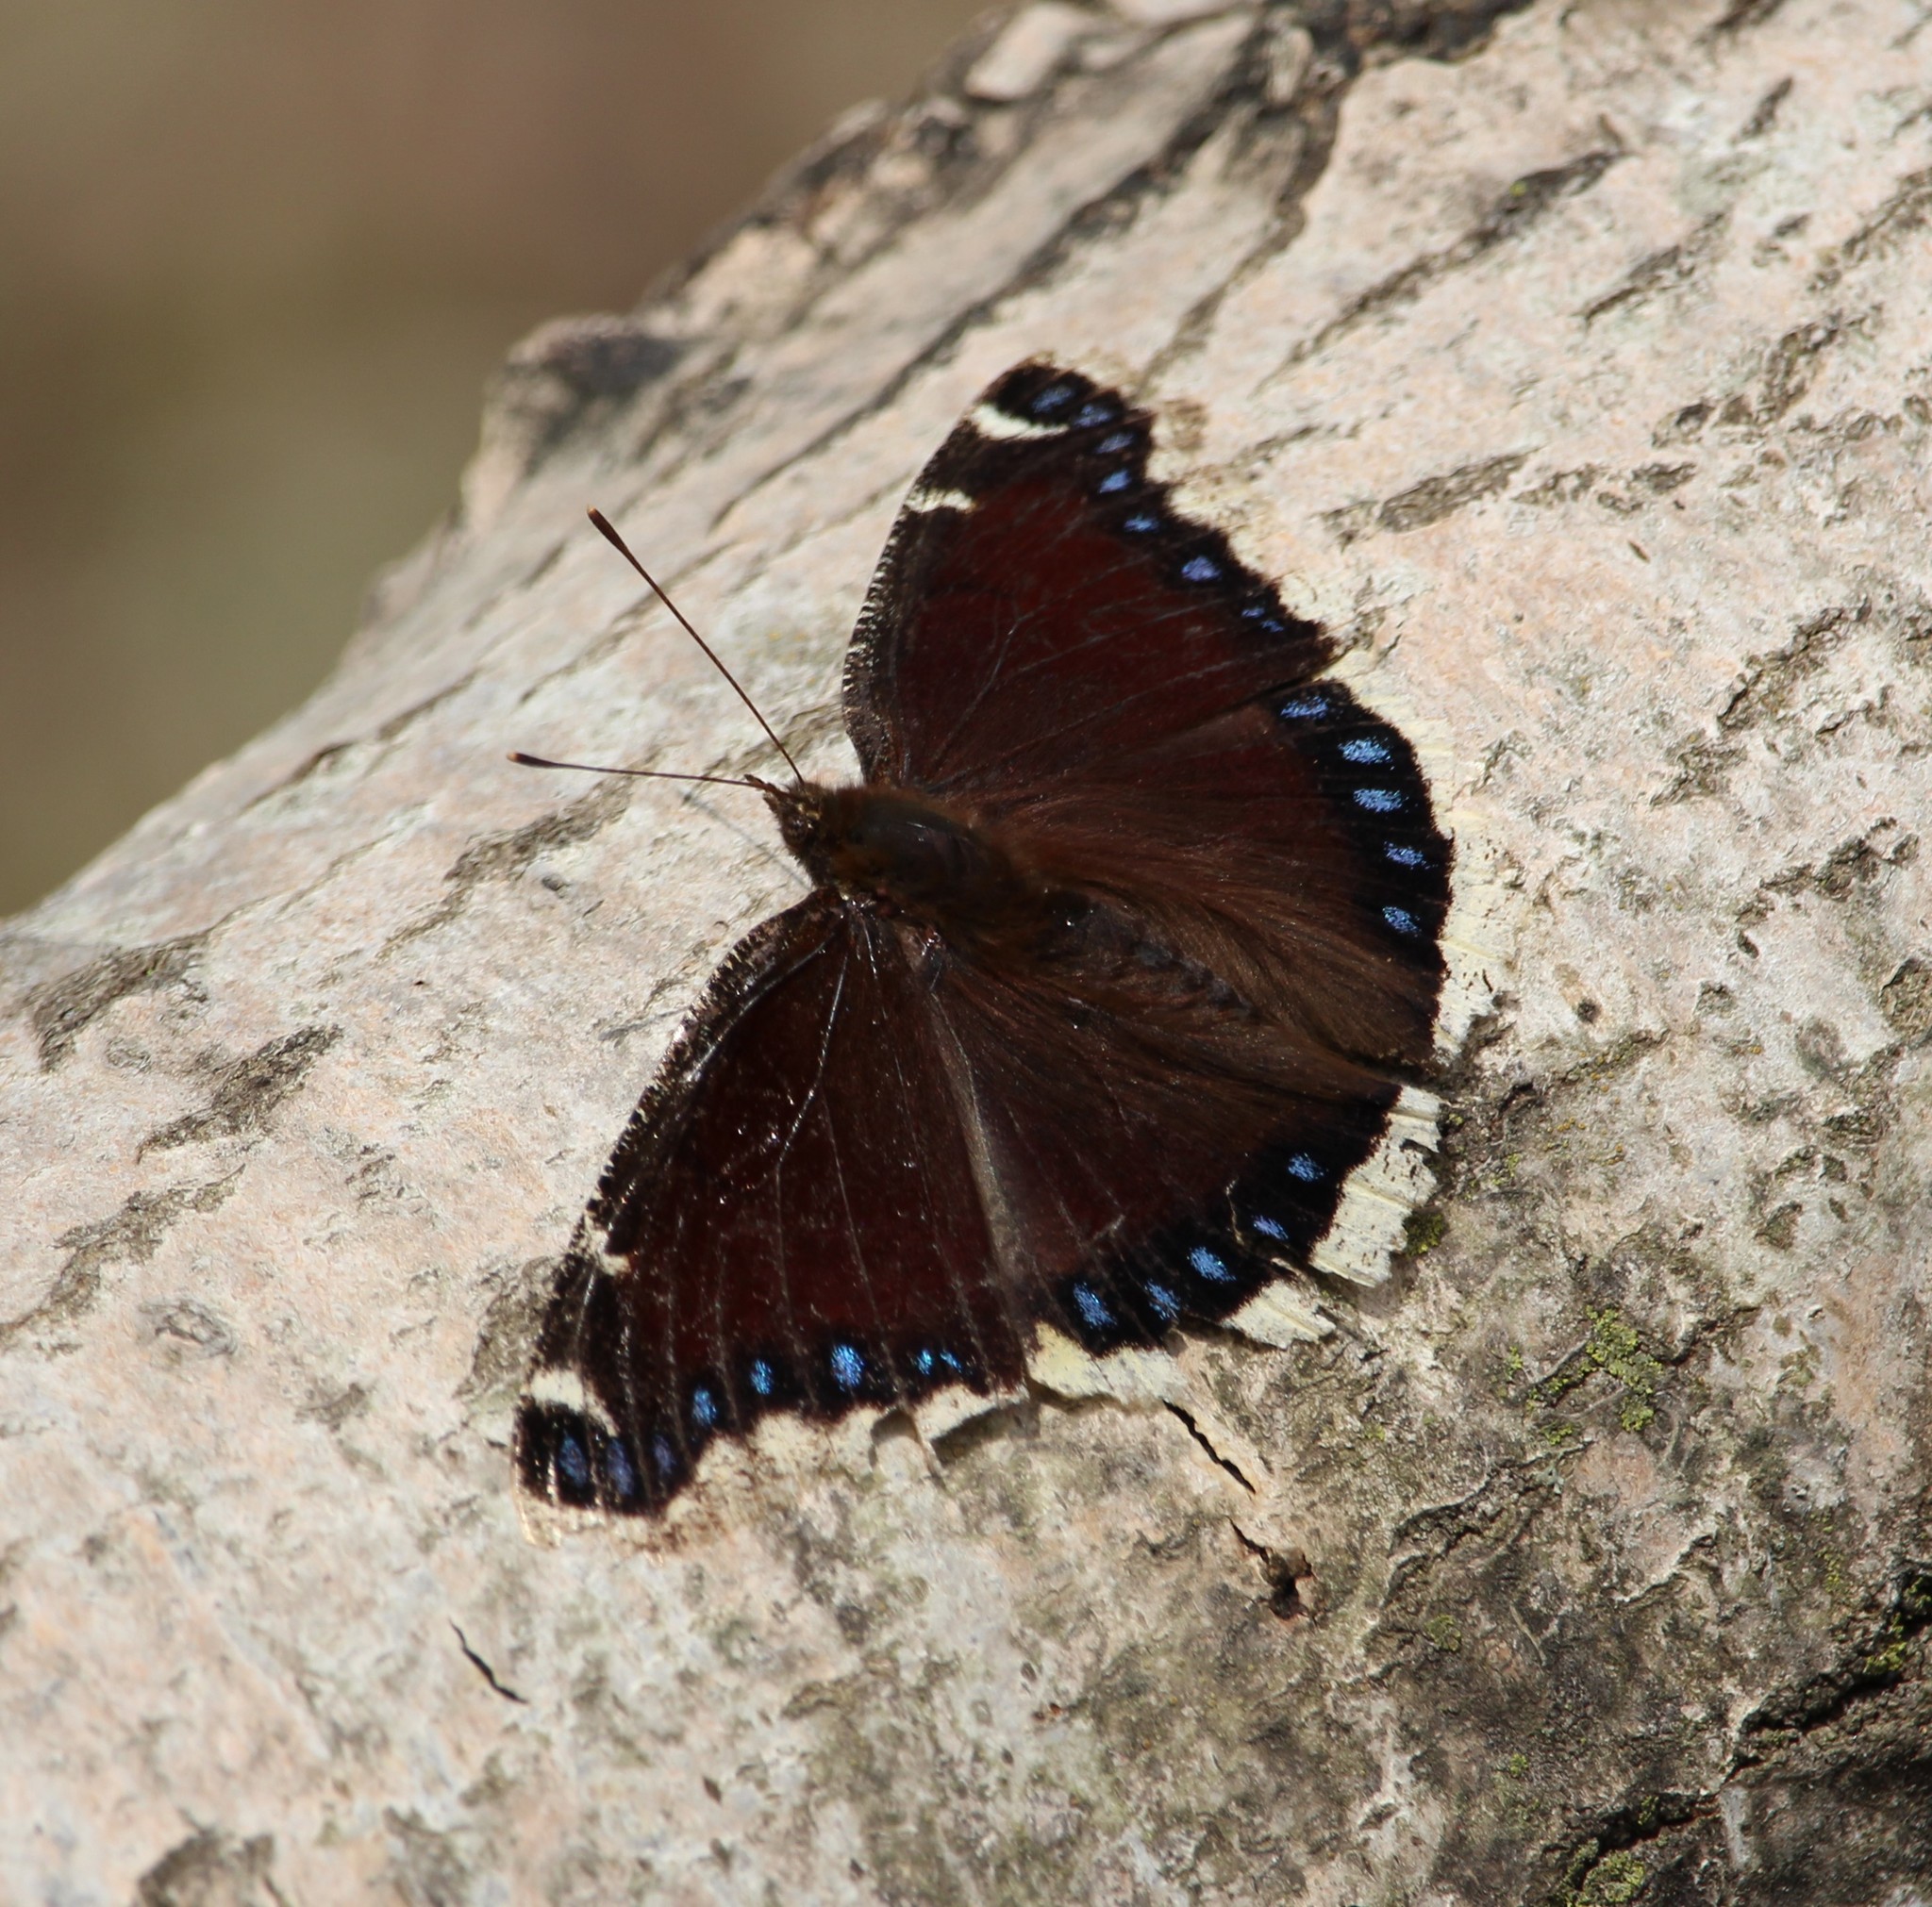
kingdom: Animalia
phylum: Arthropoda
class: Insecta
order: Lepidoptera
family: Nymphalidae
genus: Nymphalis
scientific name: Nymphalis antiopa
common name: Camberwell beauty
